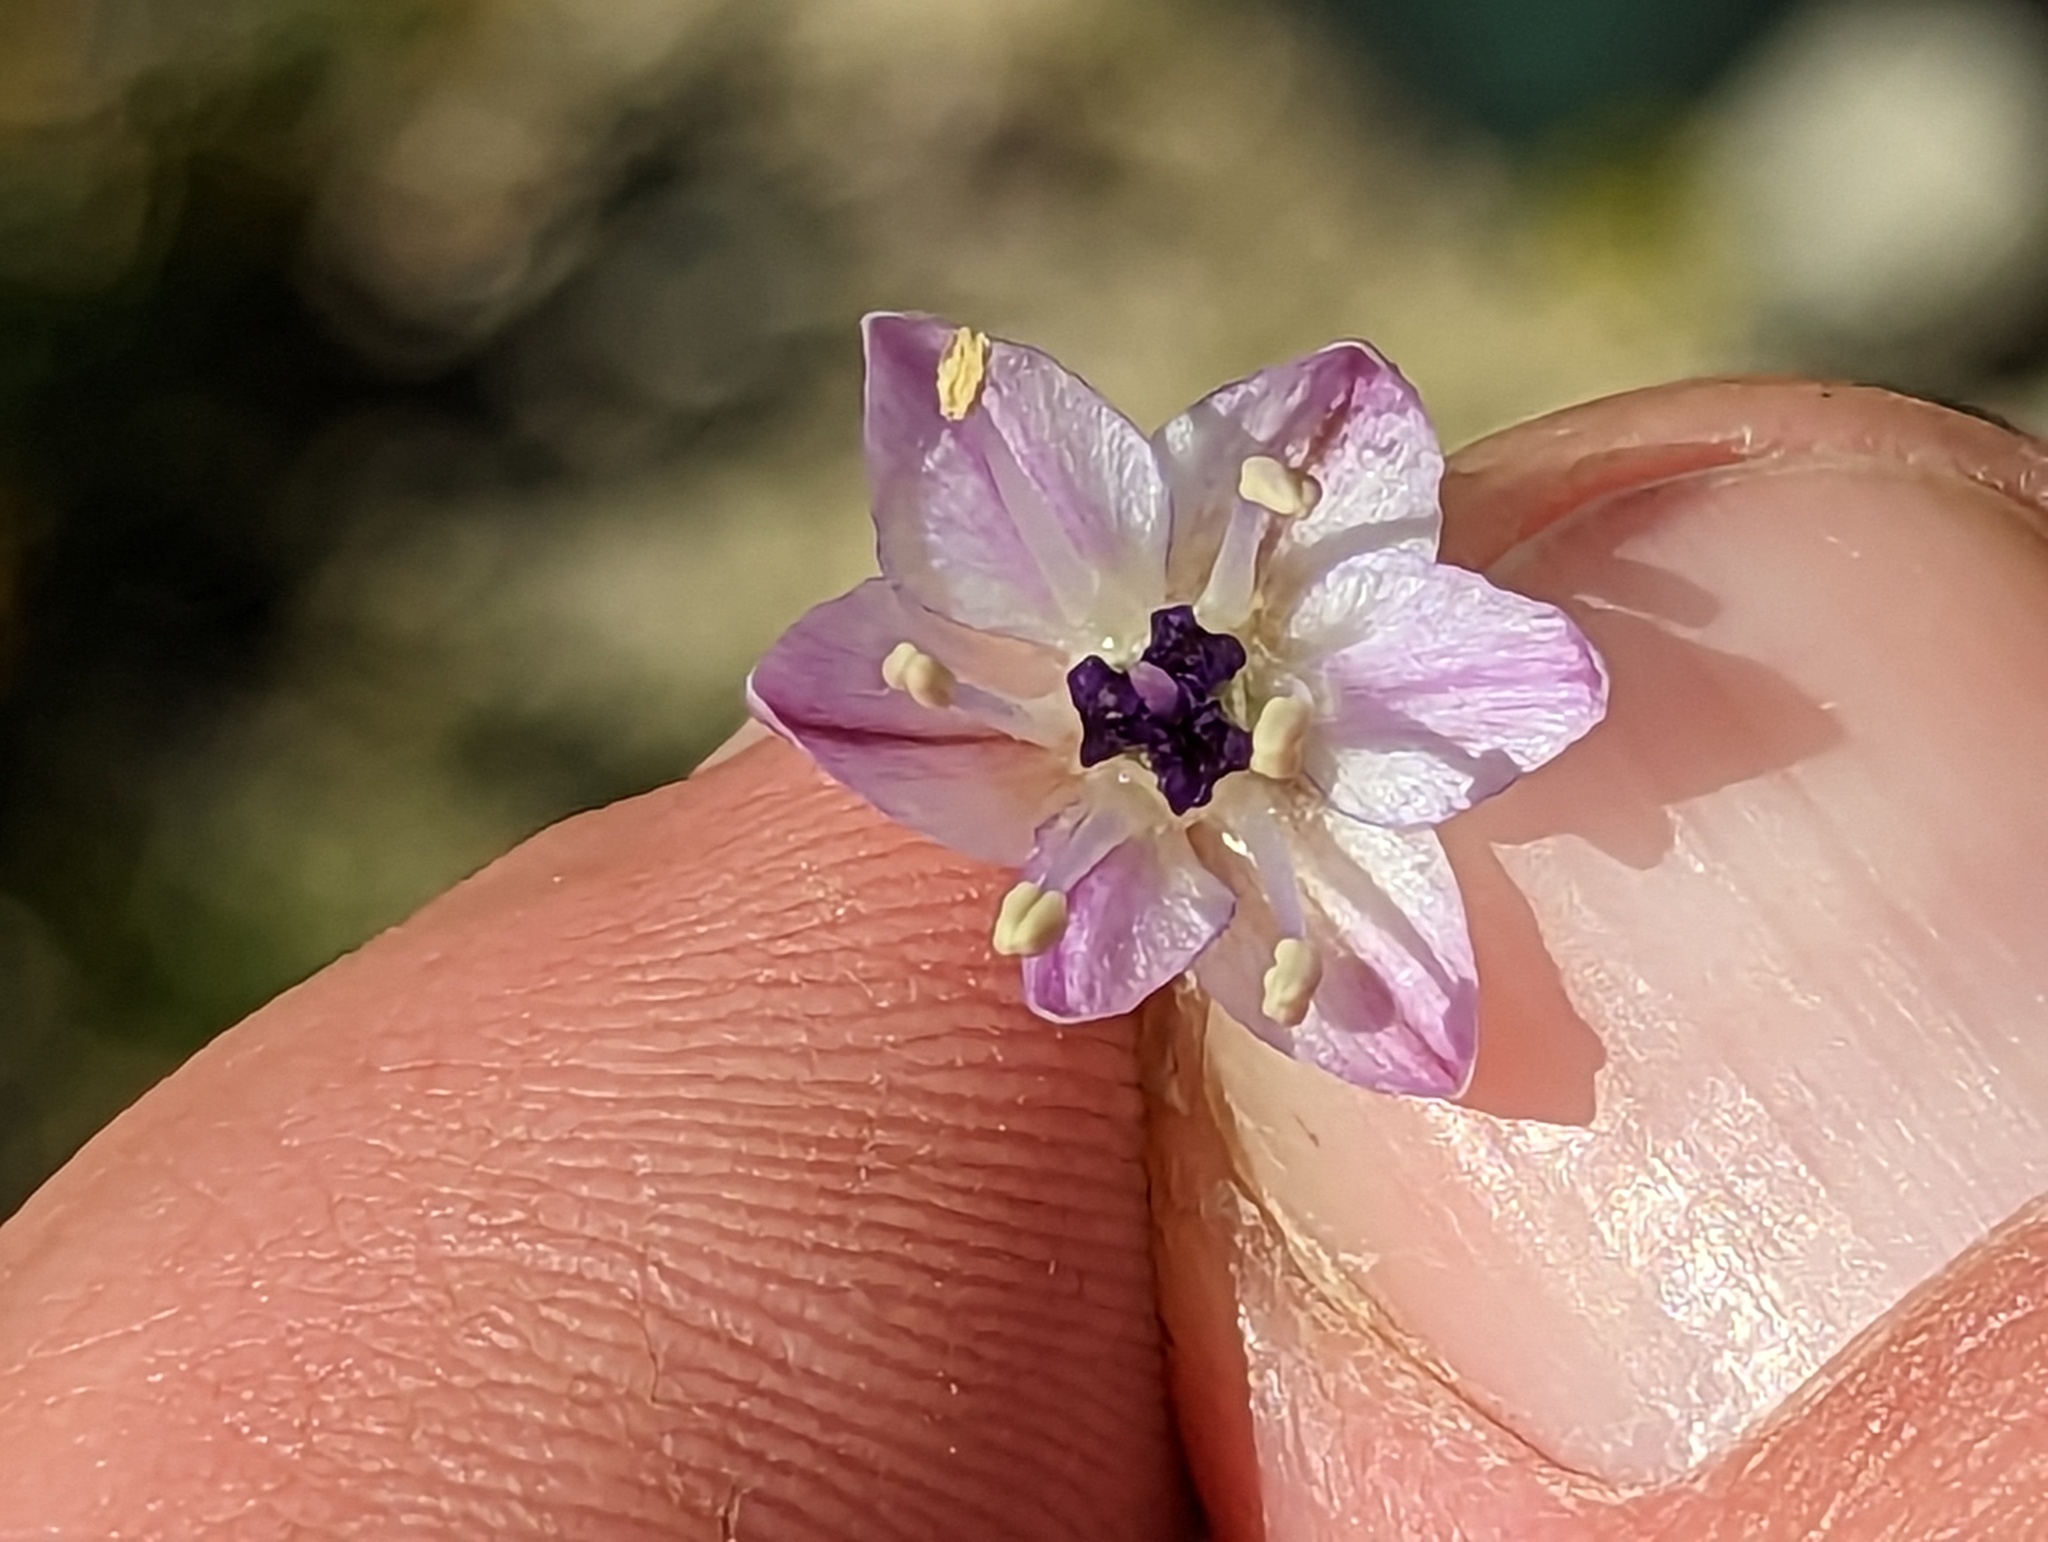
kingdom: Plantae
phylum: Tracheophyta
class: Liliopsida
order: Asparagales
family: Amaryllidaceae
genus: Allium
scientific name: Allium howellii
